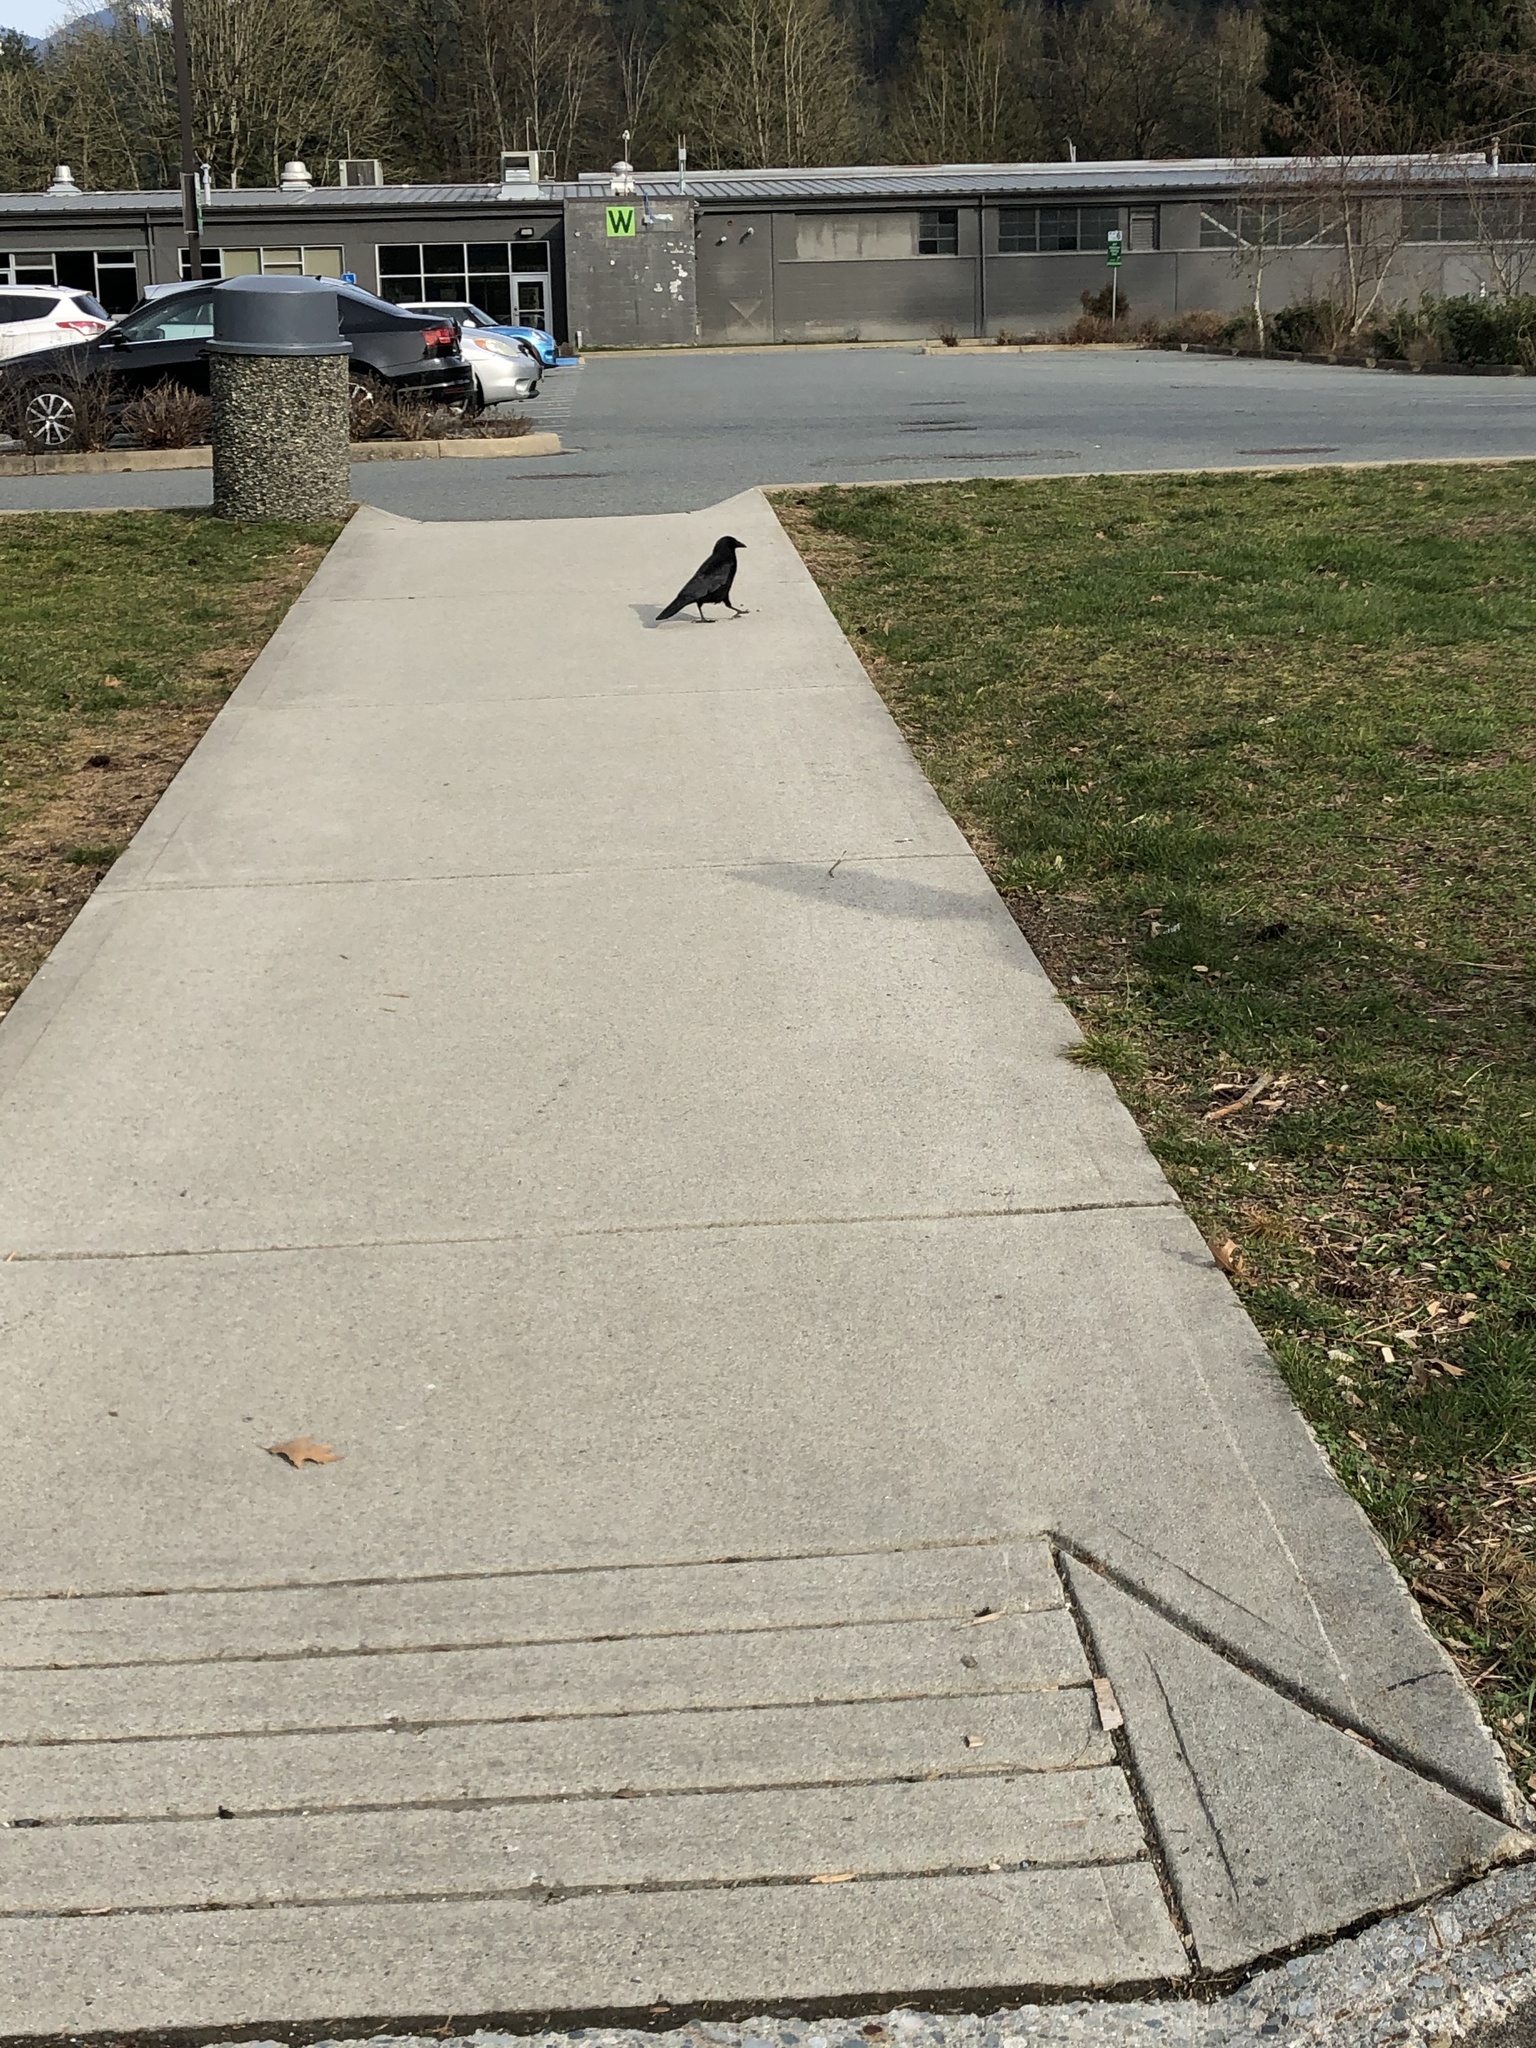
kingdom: Animalia
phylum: Chordata
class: Aves
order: Passeriformes
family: Corvidae
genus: Corvus
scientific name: Corvus brachyrhynchos
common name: American crow
